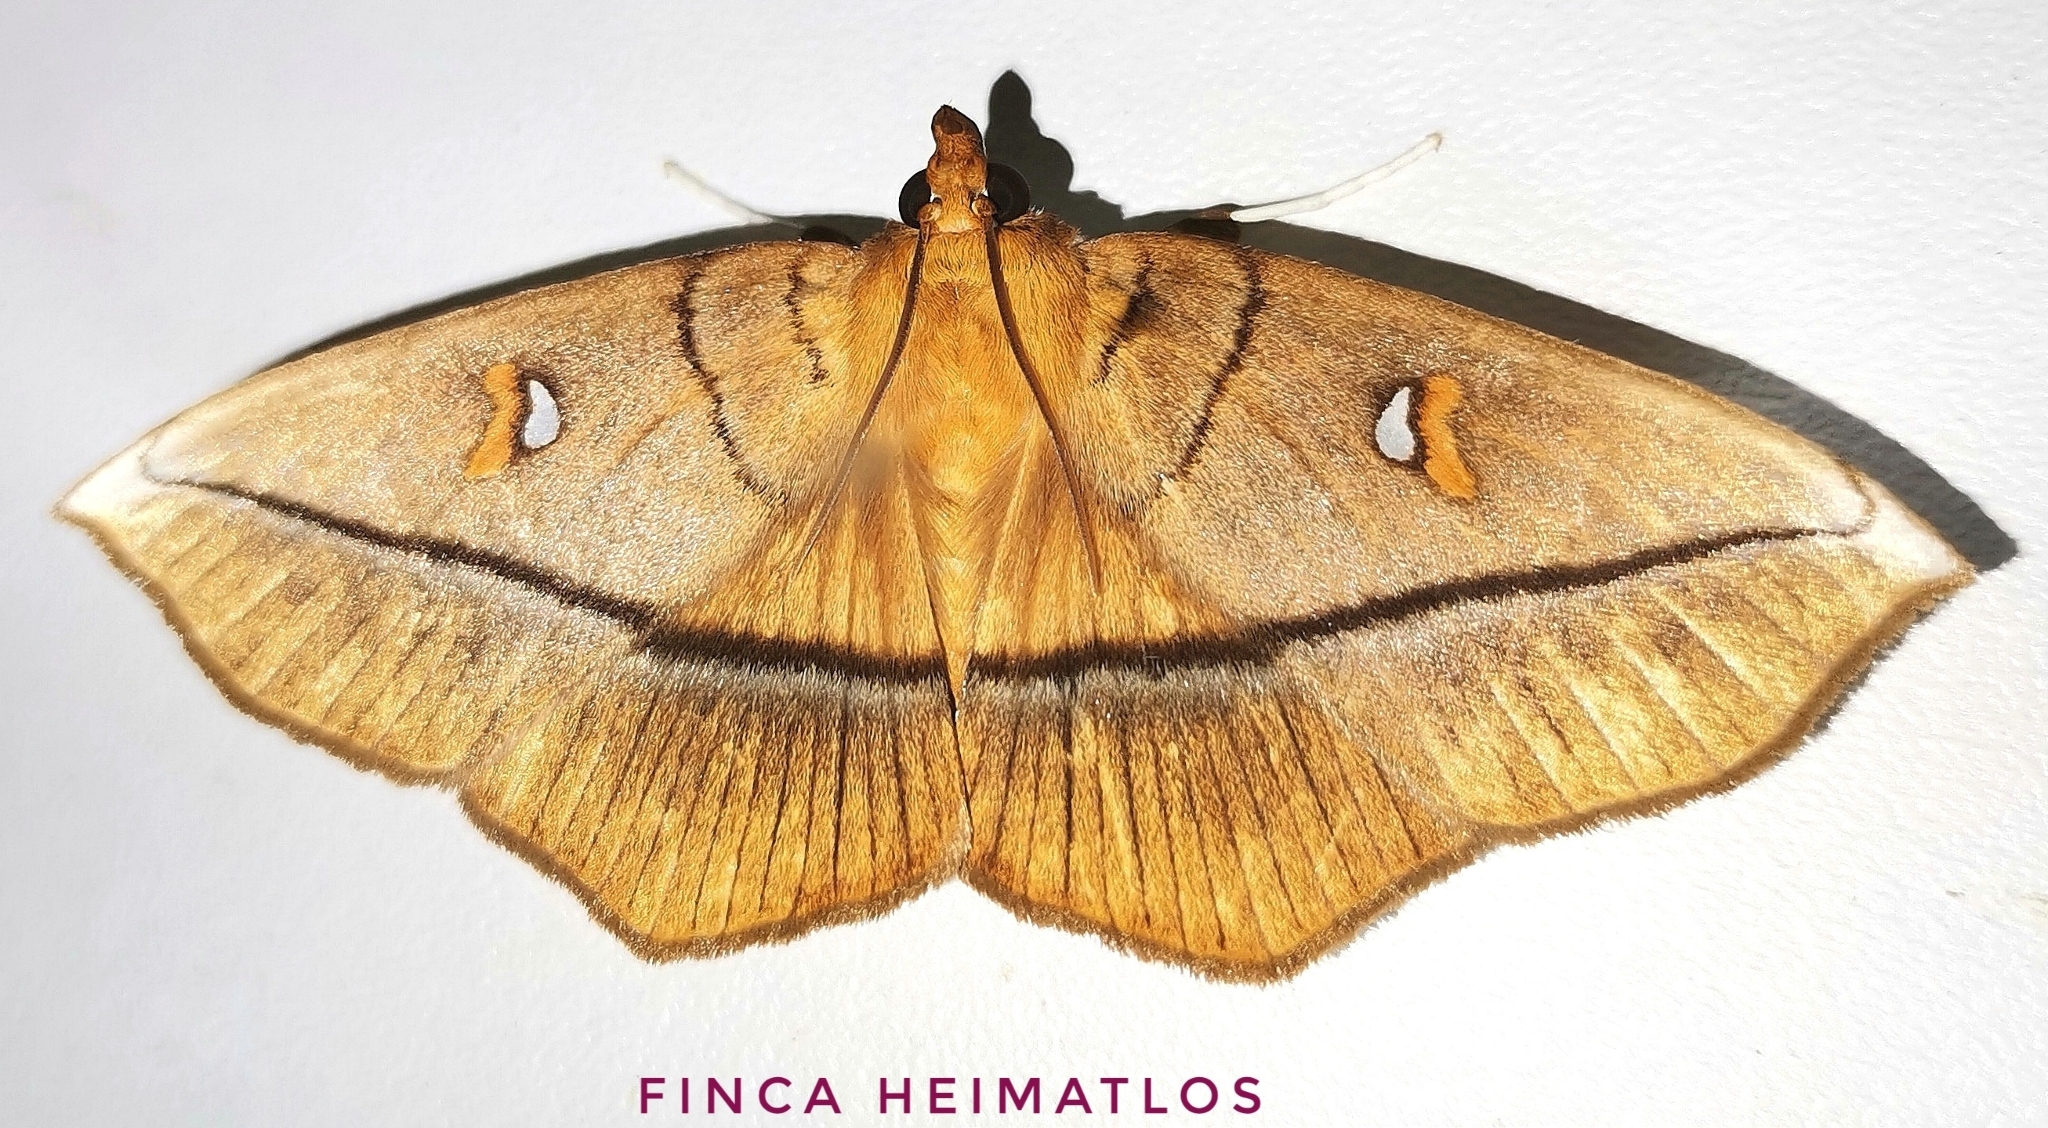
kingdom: Animalia
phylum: Arthropoda
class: Insecta
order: Lepidoptera
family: Crambidae
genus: Midila
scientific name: Midila poppaea
